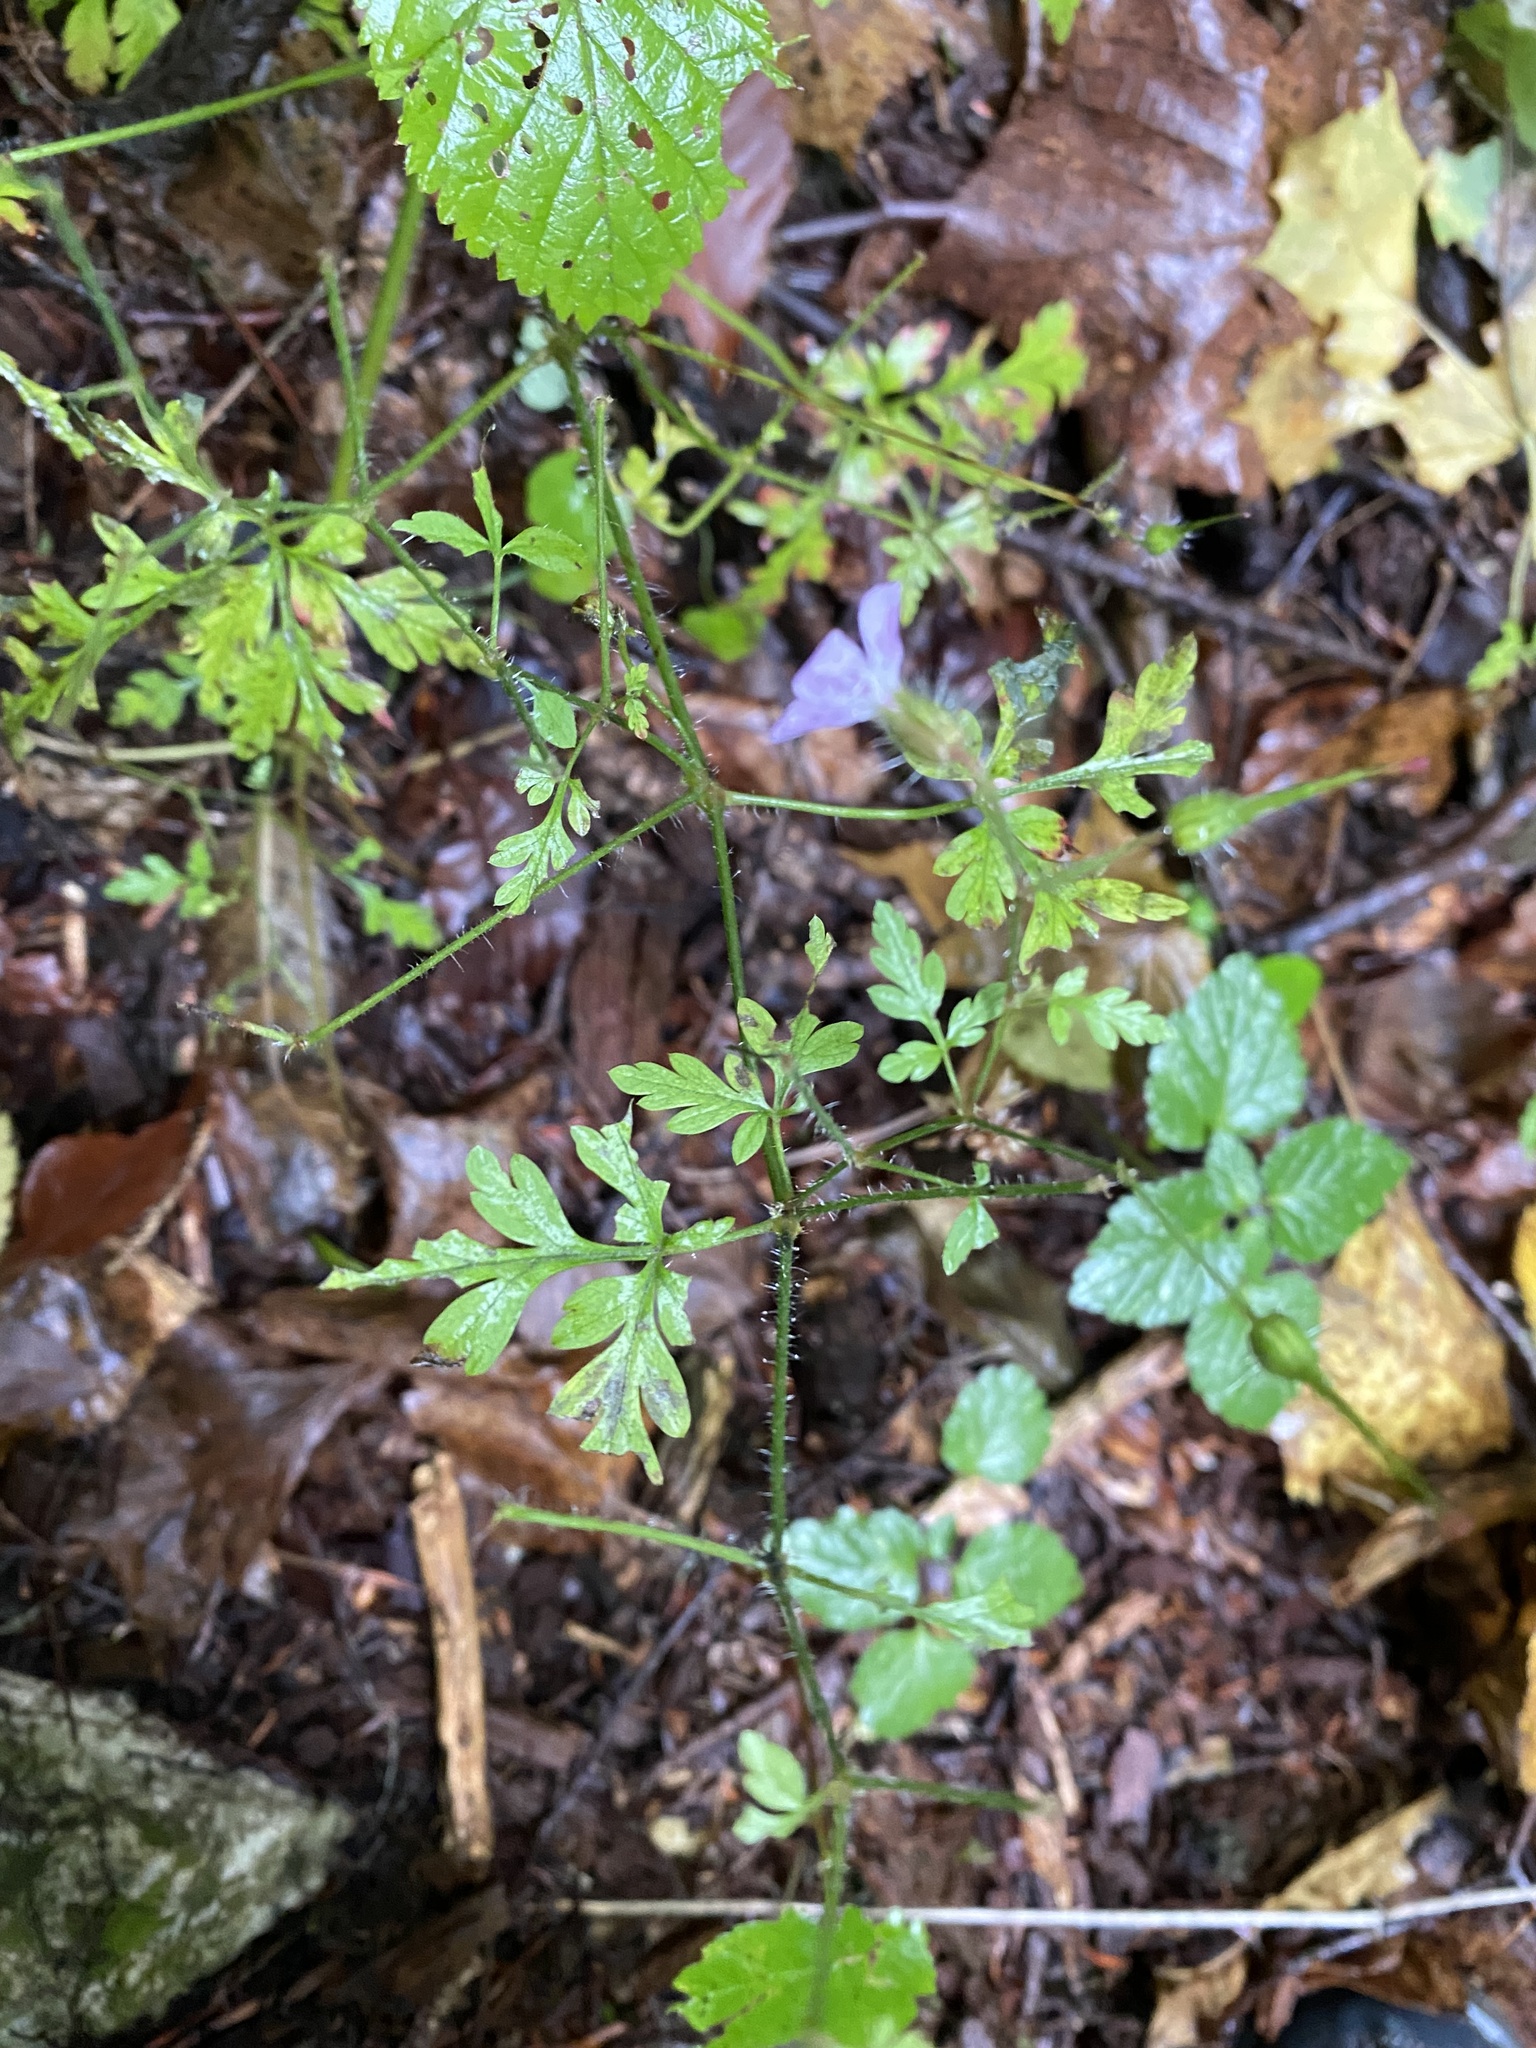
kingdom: Plantae
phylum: Tracheophyta
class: Magnoliopsida
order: Geraniales
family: Geraniaceae
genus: Geranium
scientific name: Geranium robertianum
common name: Herb-robert
